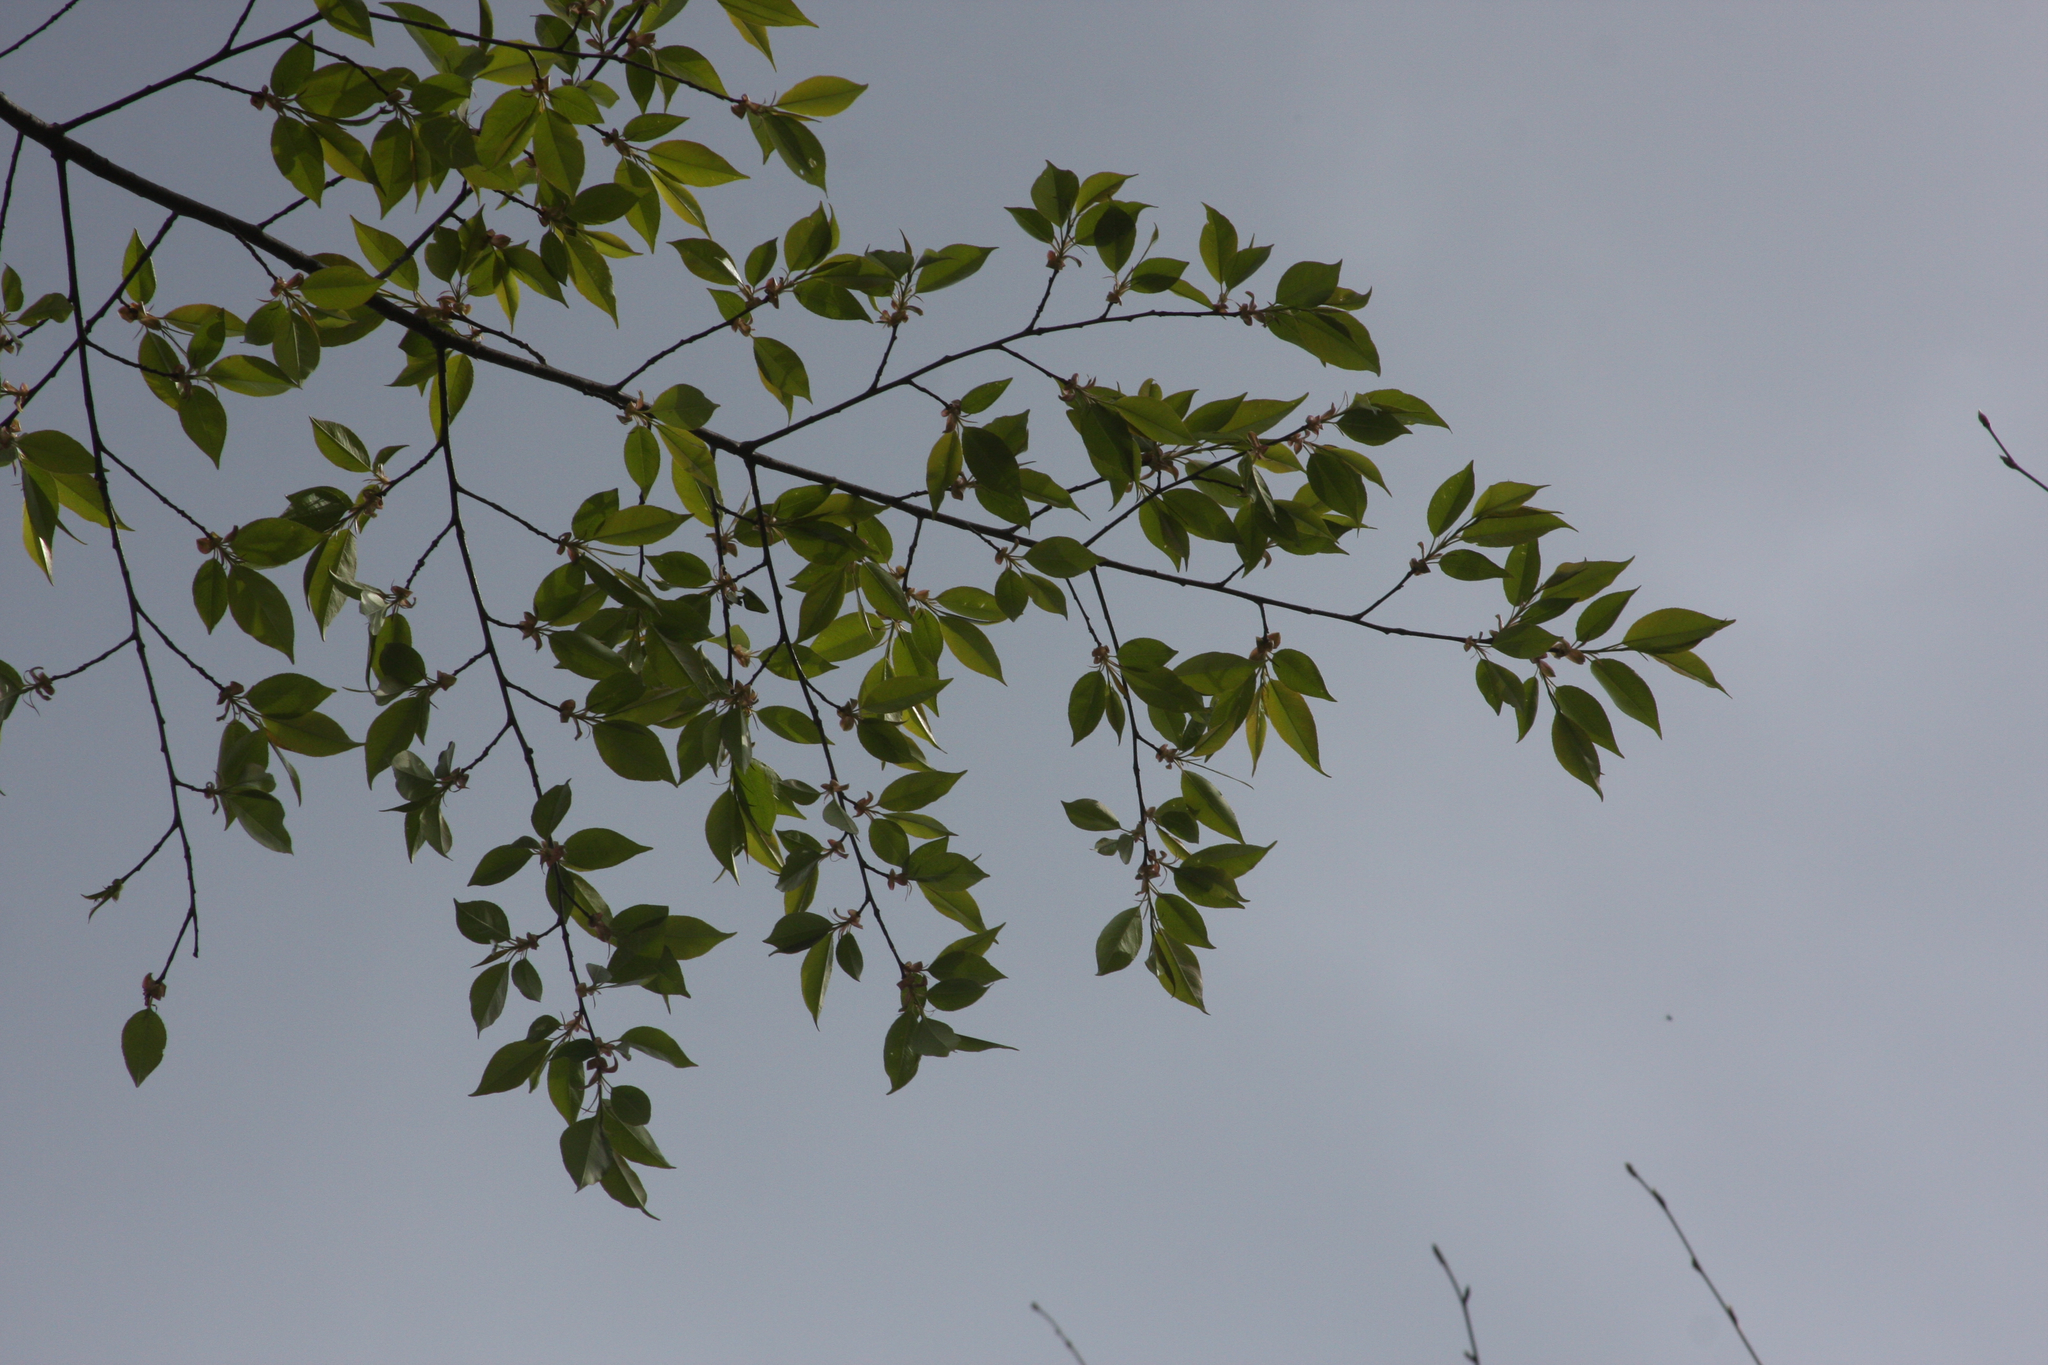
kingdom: Plantae
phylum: Tracheophyta
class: Magnoliopsida
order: Rosales
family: Rosaceae
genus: Prunus
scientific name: Prunus serotina
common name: Black cherry
